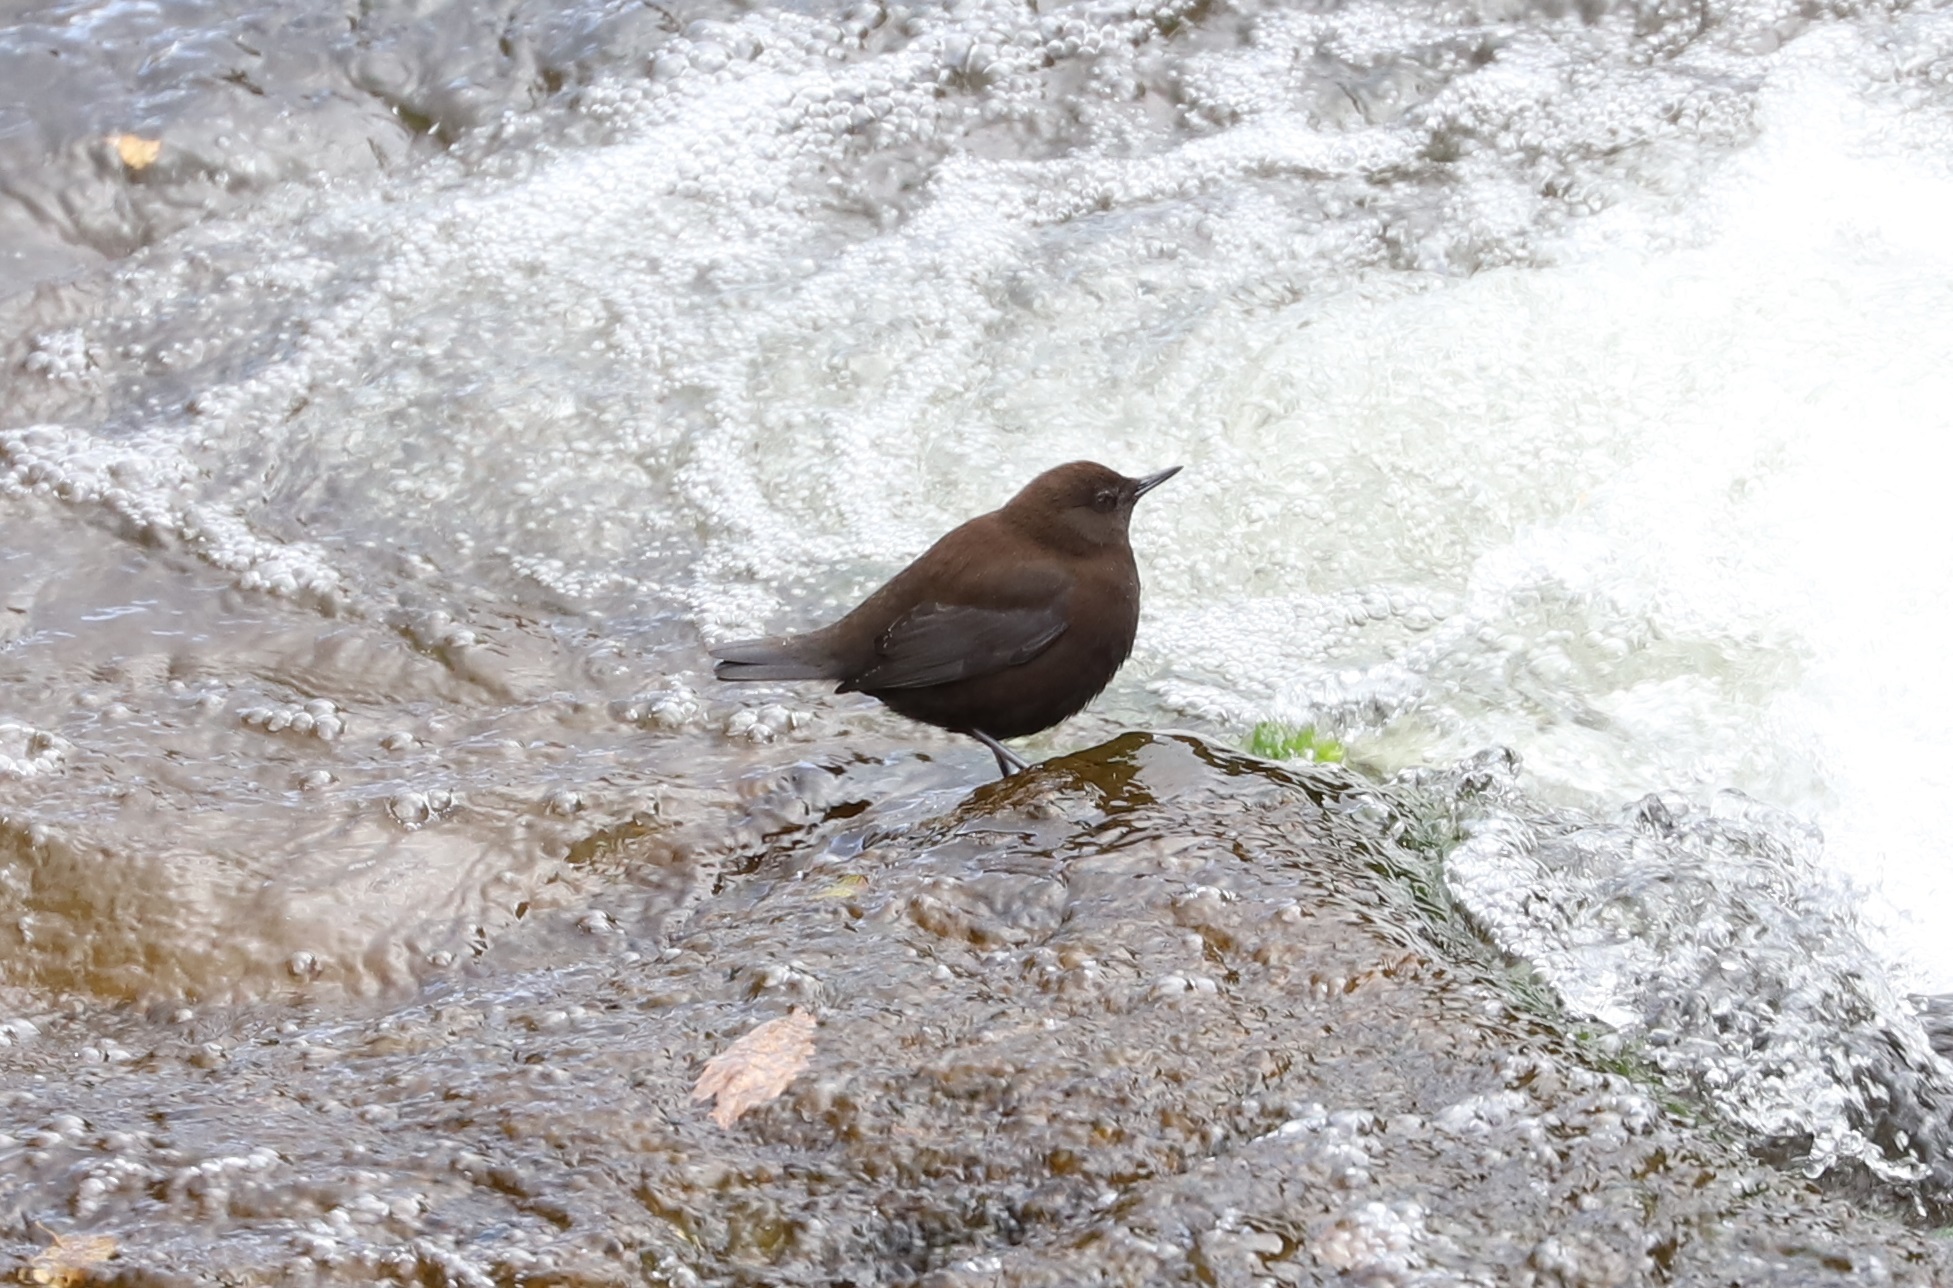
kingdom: Animalia
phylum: Chordata
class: Aves
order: Passeriformes
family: Cinclidae
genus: Cinclus
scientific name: Cinclus pallasii
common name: Brown dipper
